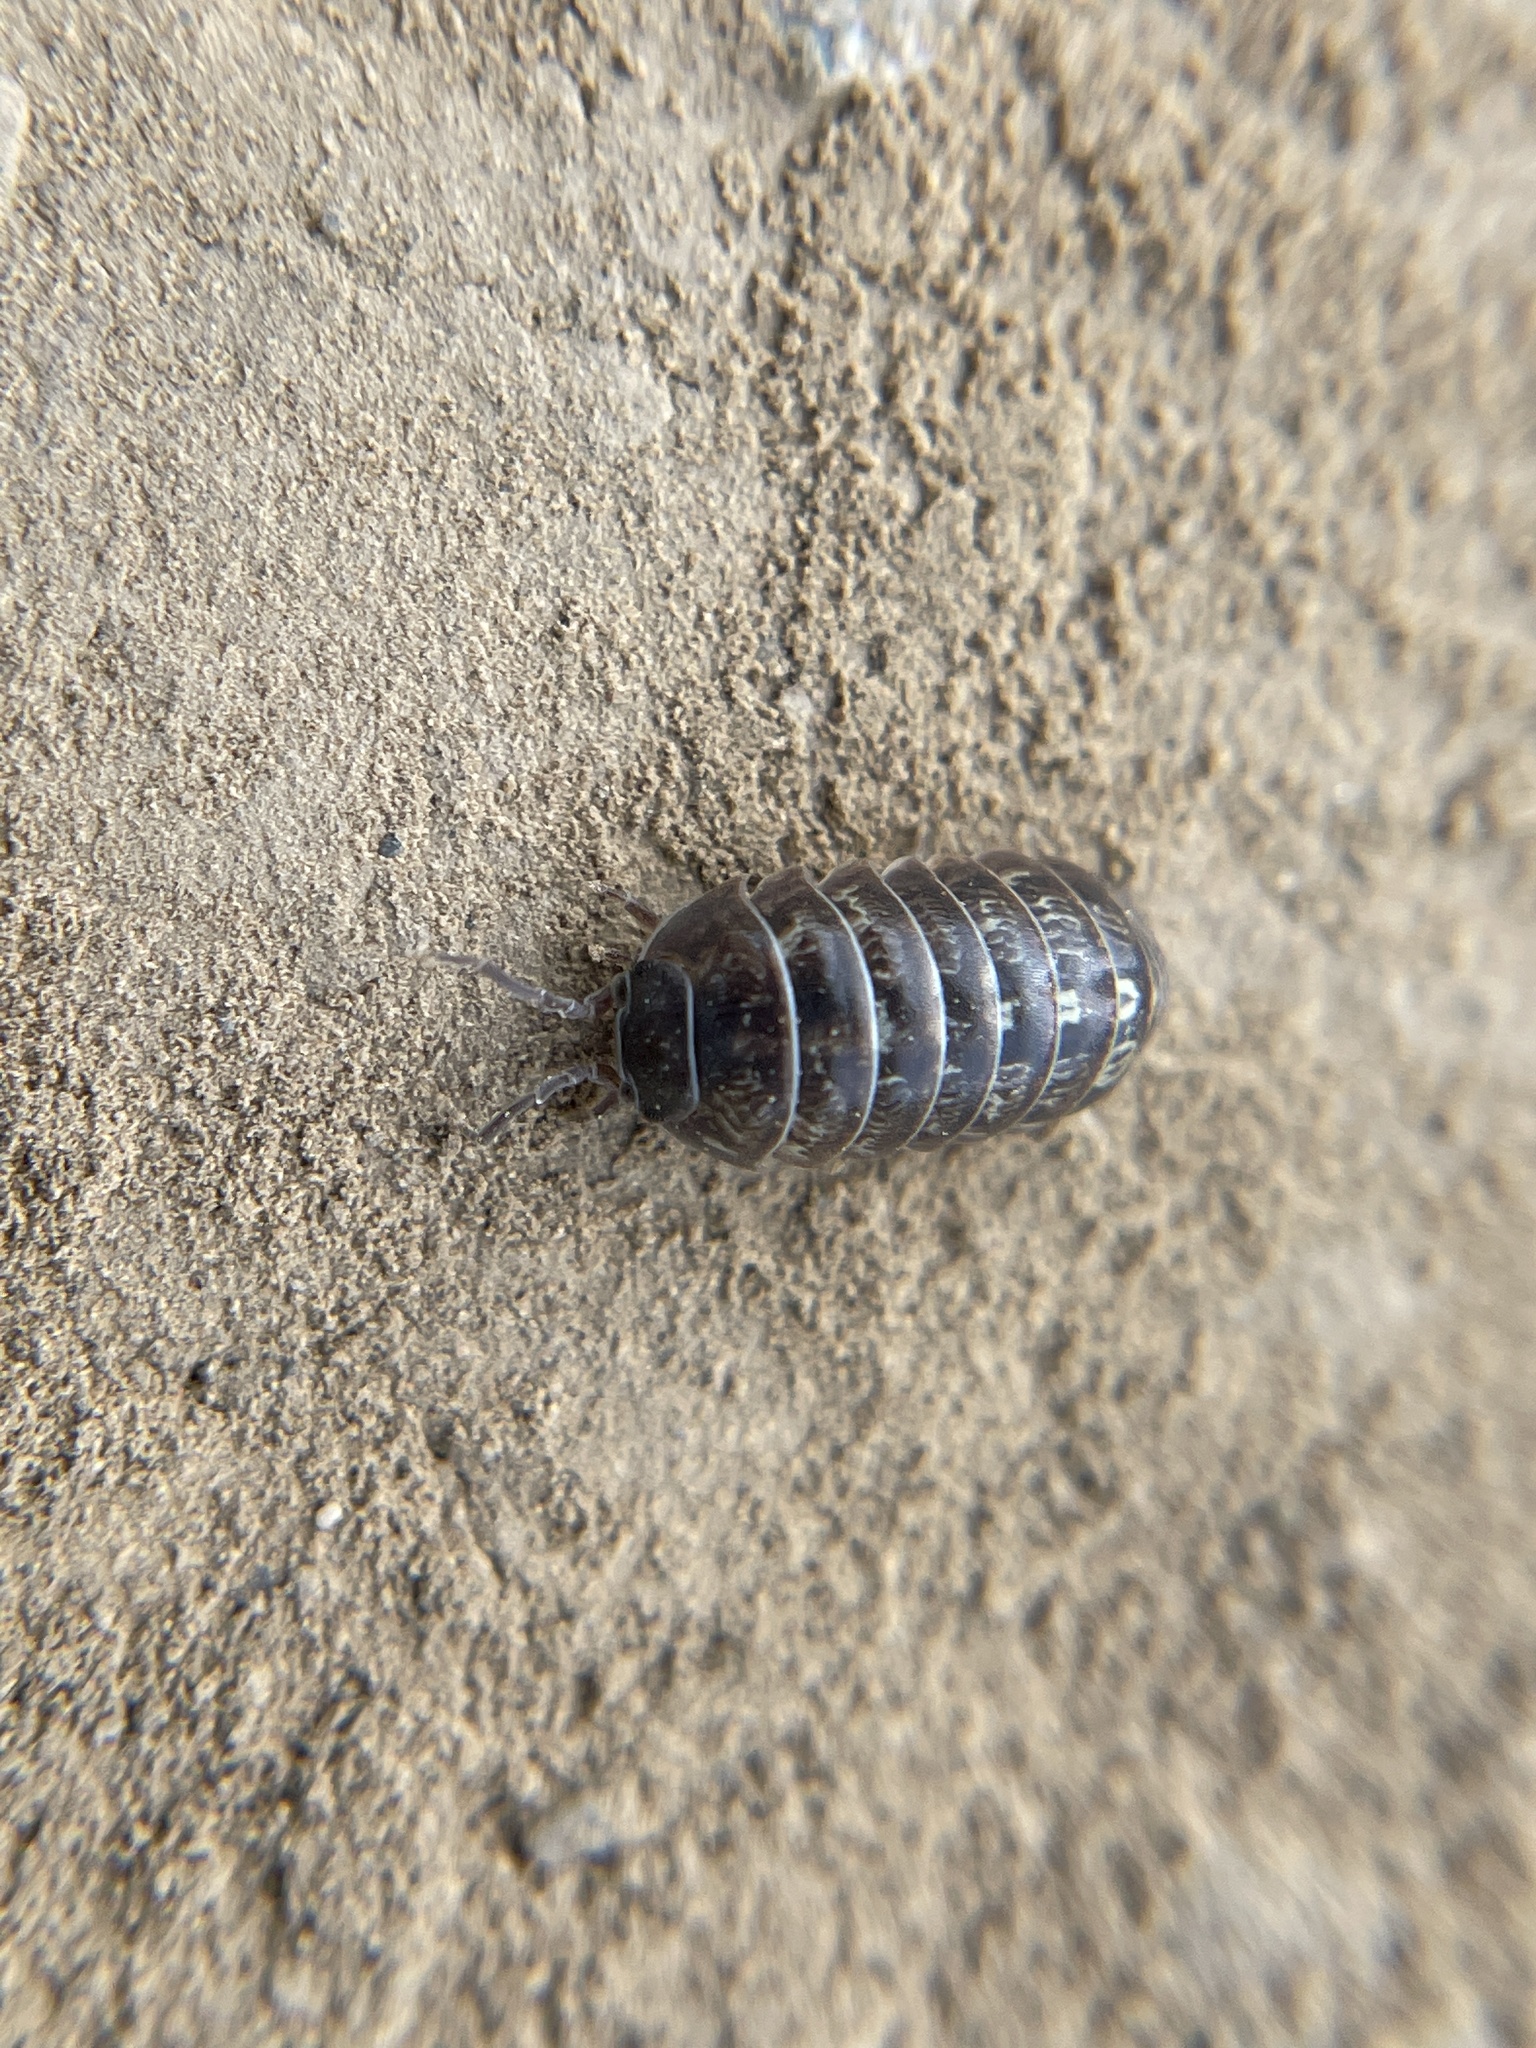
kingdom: Animalia
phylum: Arthropoda
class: Malacostraca
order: Isopoda
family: Armadillidiidae
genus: Armadillidium
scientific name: Armadillidium vulgare
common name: Common pill woodlouse
